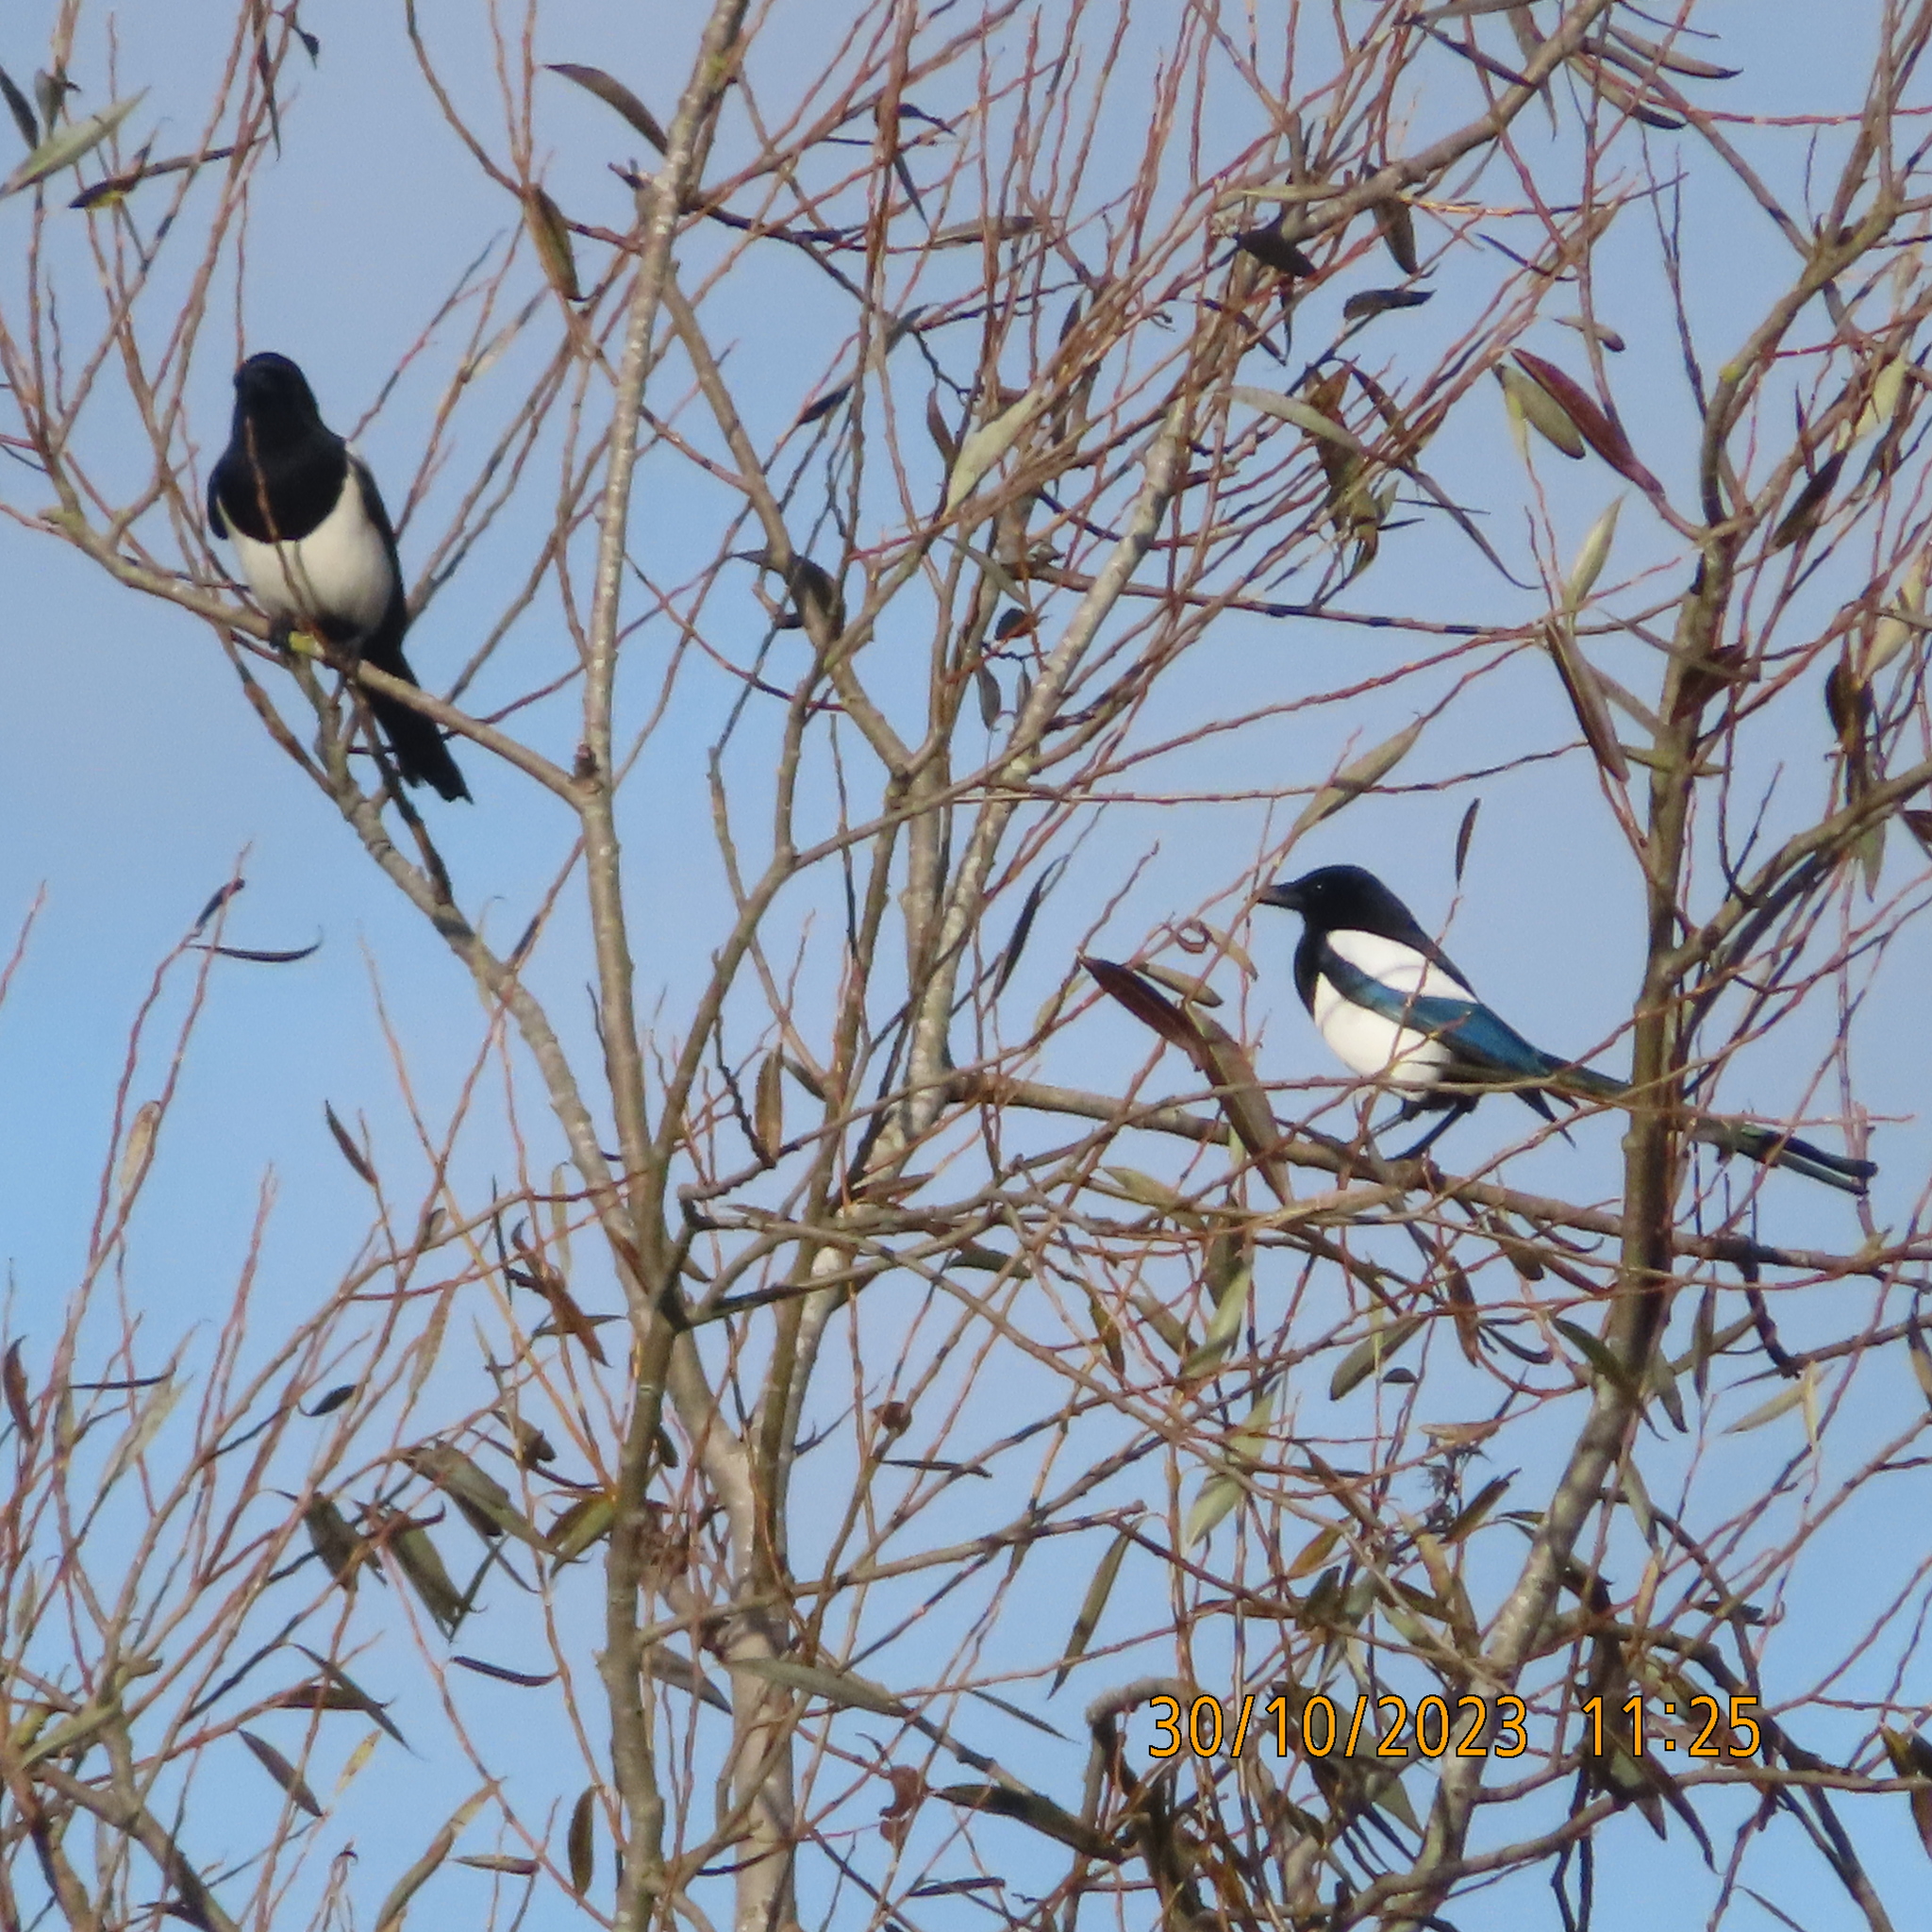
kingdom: Animalia
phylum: Chordata
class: Aves
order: Passeriformes
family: Corvidae
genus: Pica
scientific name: Pica pica
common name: Eurasian magpie
